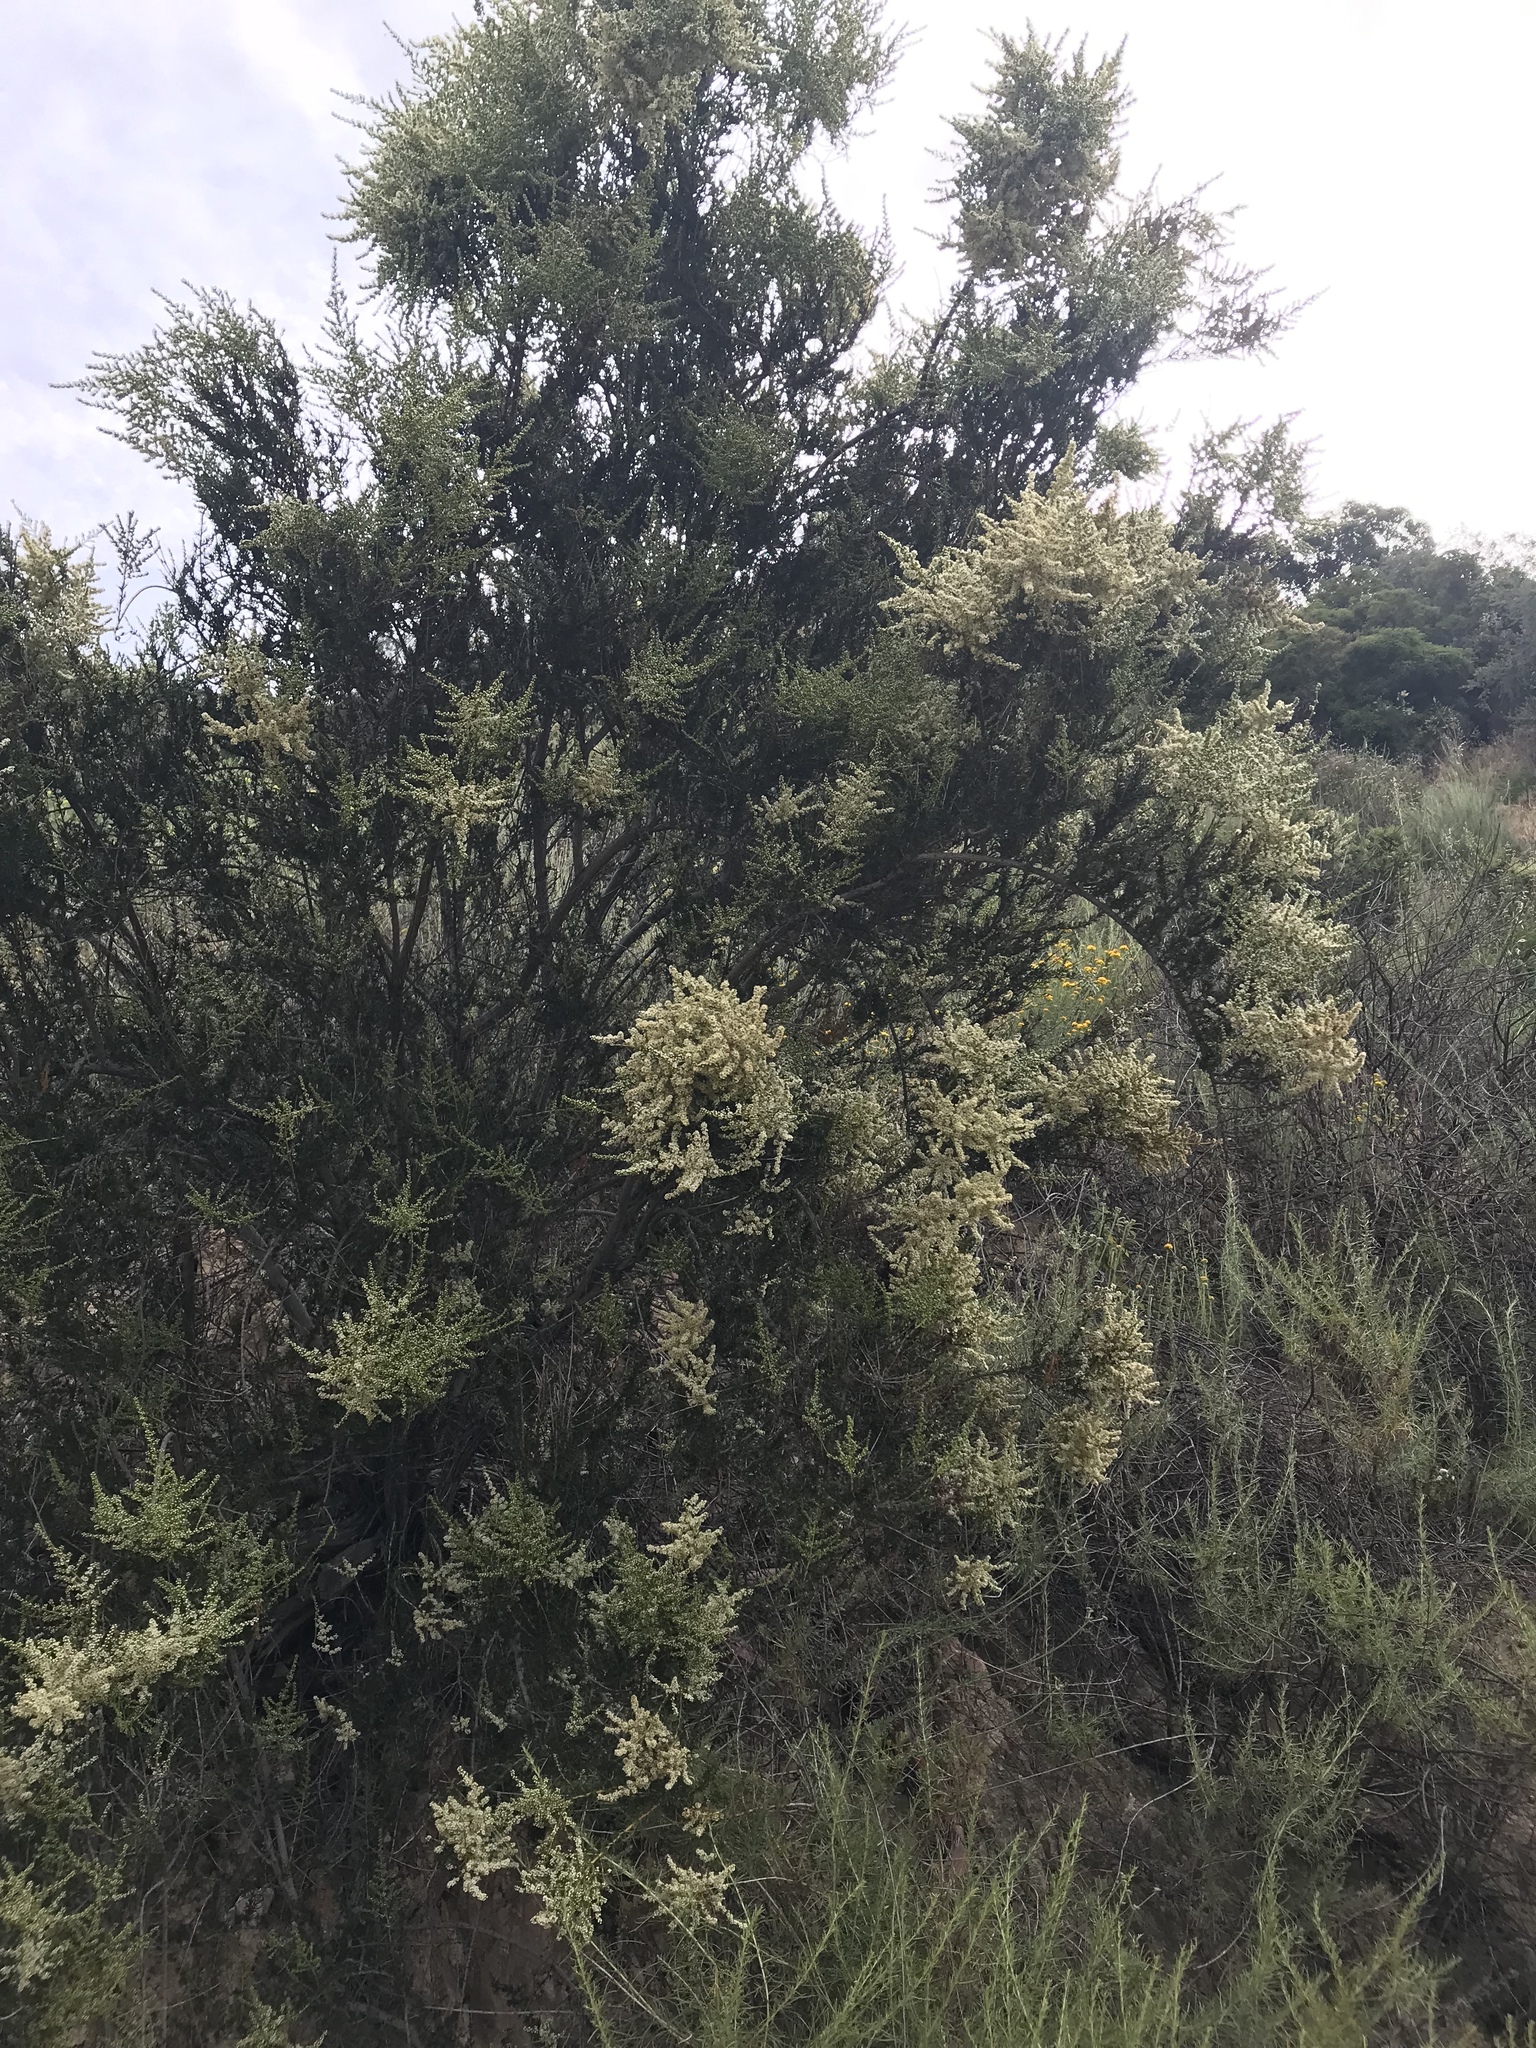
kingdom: Plantae
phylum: Tracheophyta
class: Magnoliopsida
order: Rosales
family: Rosaceae
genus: Adenostoma
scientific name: Adenostoma fasciculatum
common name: Chamise
